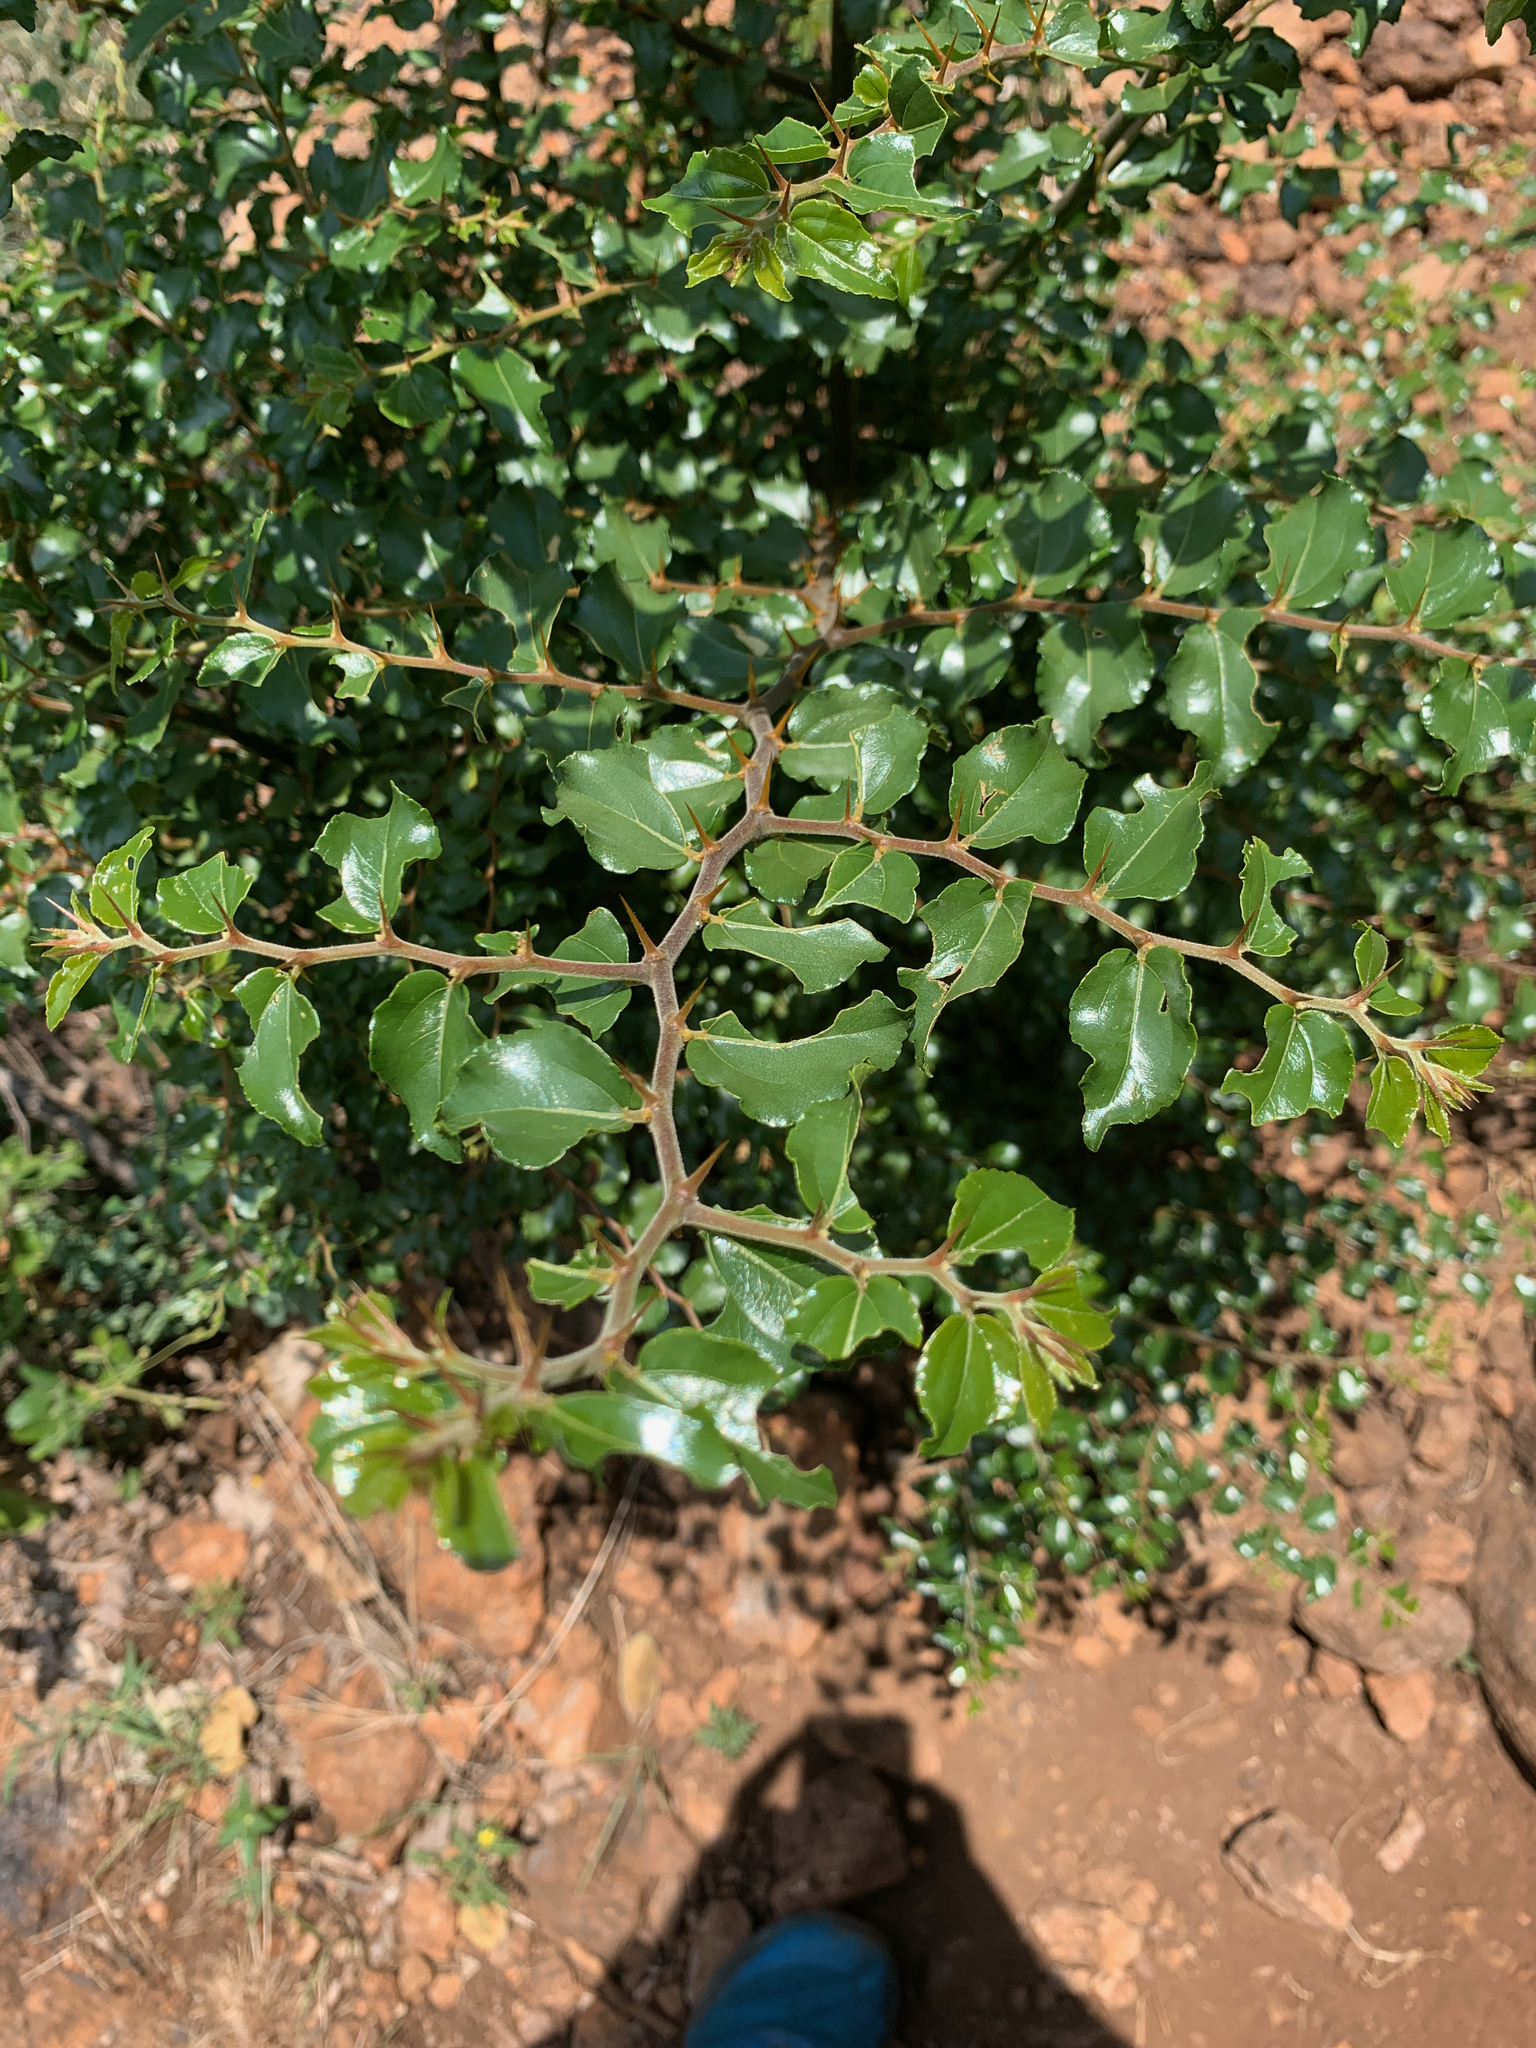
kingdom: Plantae
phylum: Tracheophyta
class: Magnoliopsida
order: Rosales
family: Rhamnaceae
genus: Ziziphus
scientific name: Ziziphus mucronata
